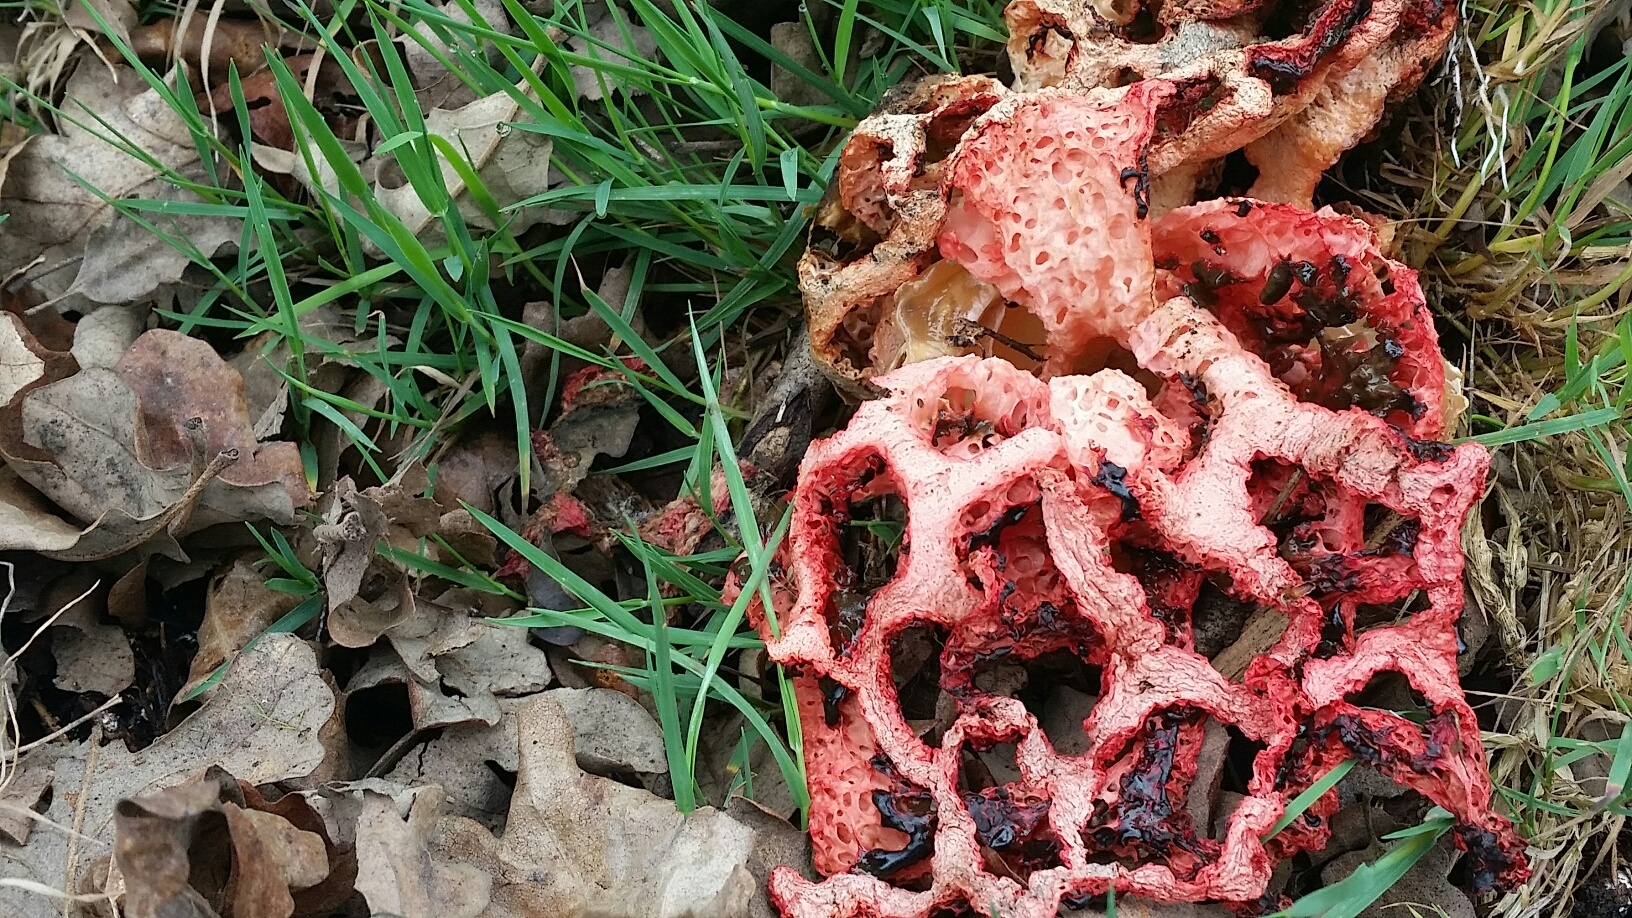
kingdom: Fungi
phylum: Basidiomycota
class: Agaricomycetes
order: Phallales
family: Phallaceae
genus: Clathrus
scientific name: Clathrus ruber
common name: Red cage
